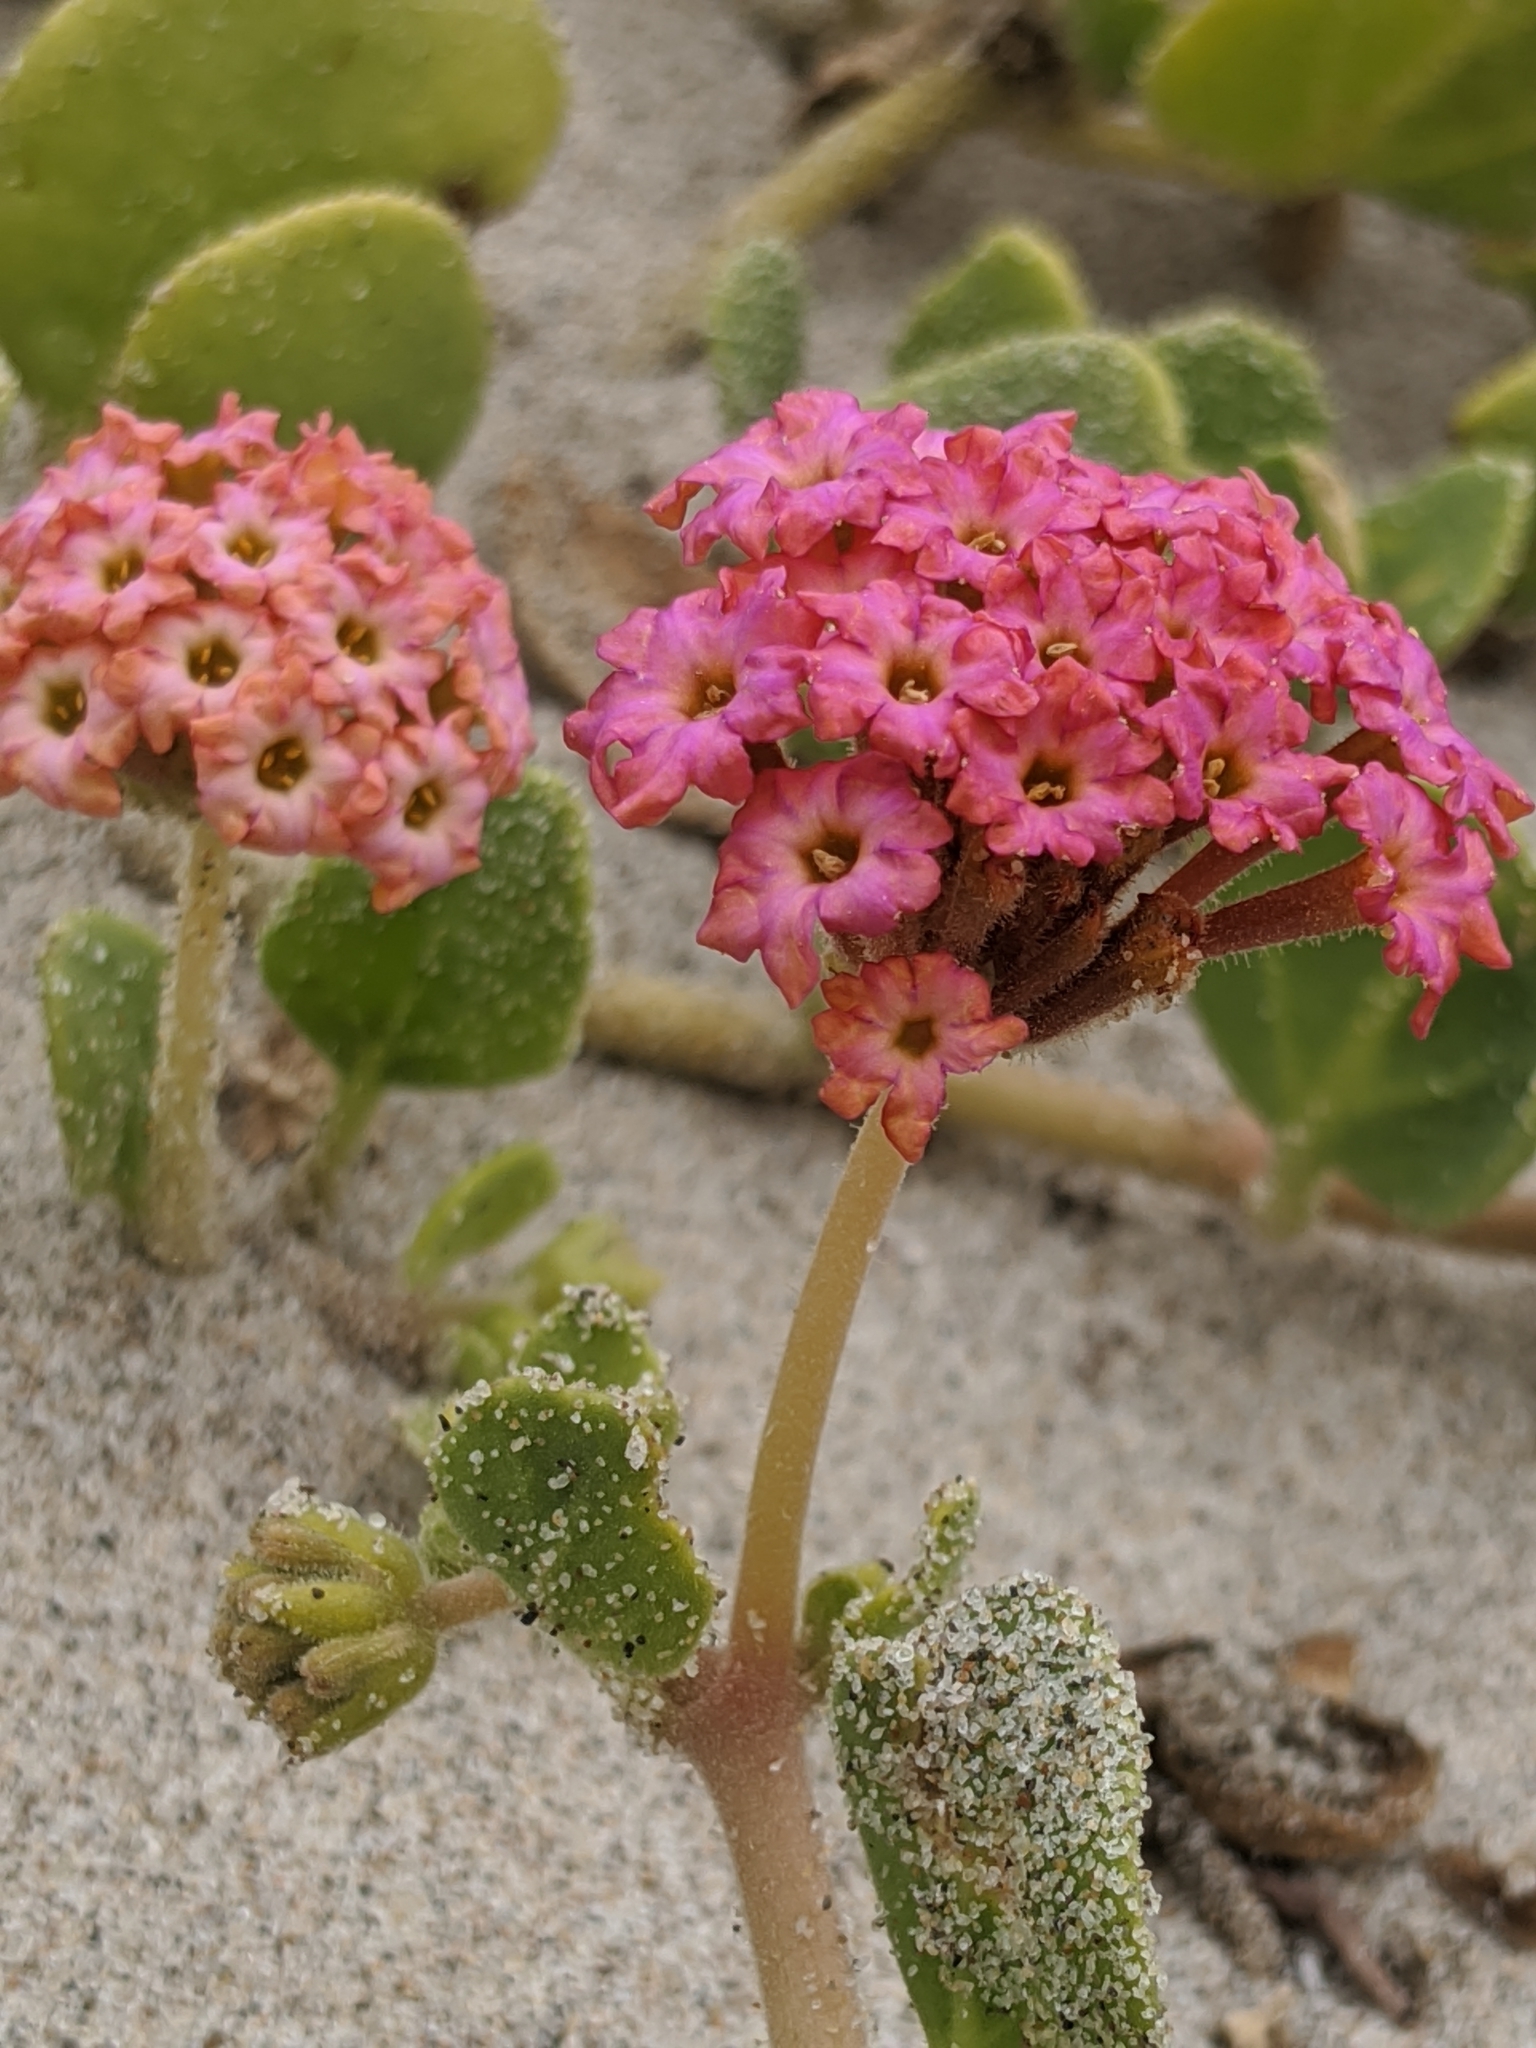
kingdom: Plantae
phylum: Tracheophyta
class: Magnoliopsida
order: Caryophyllales
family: Nyctaginaceae
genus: Abronia
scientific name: Abronia
